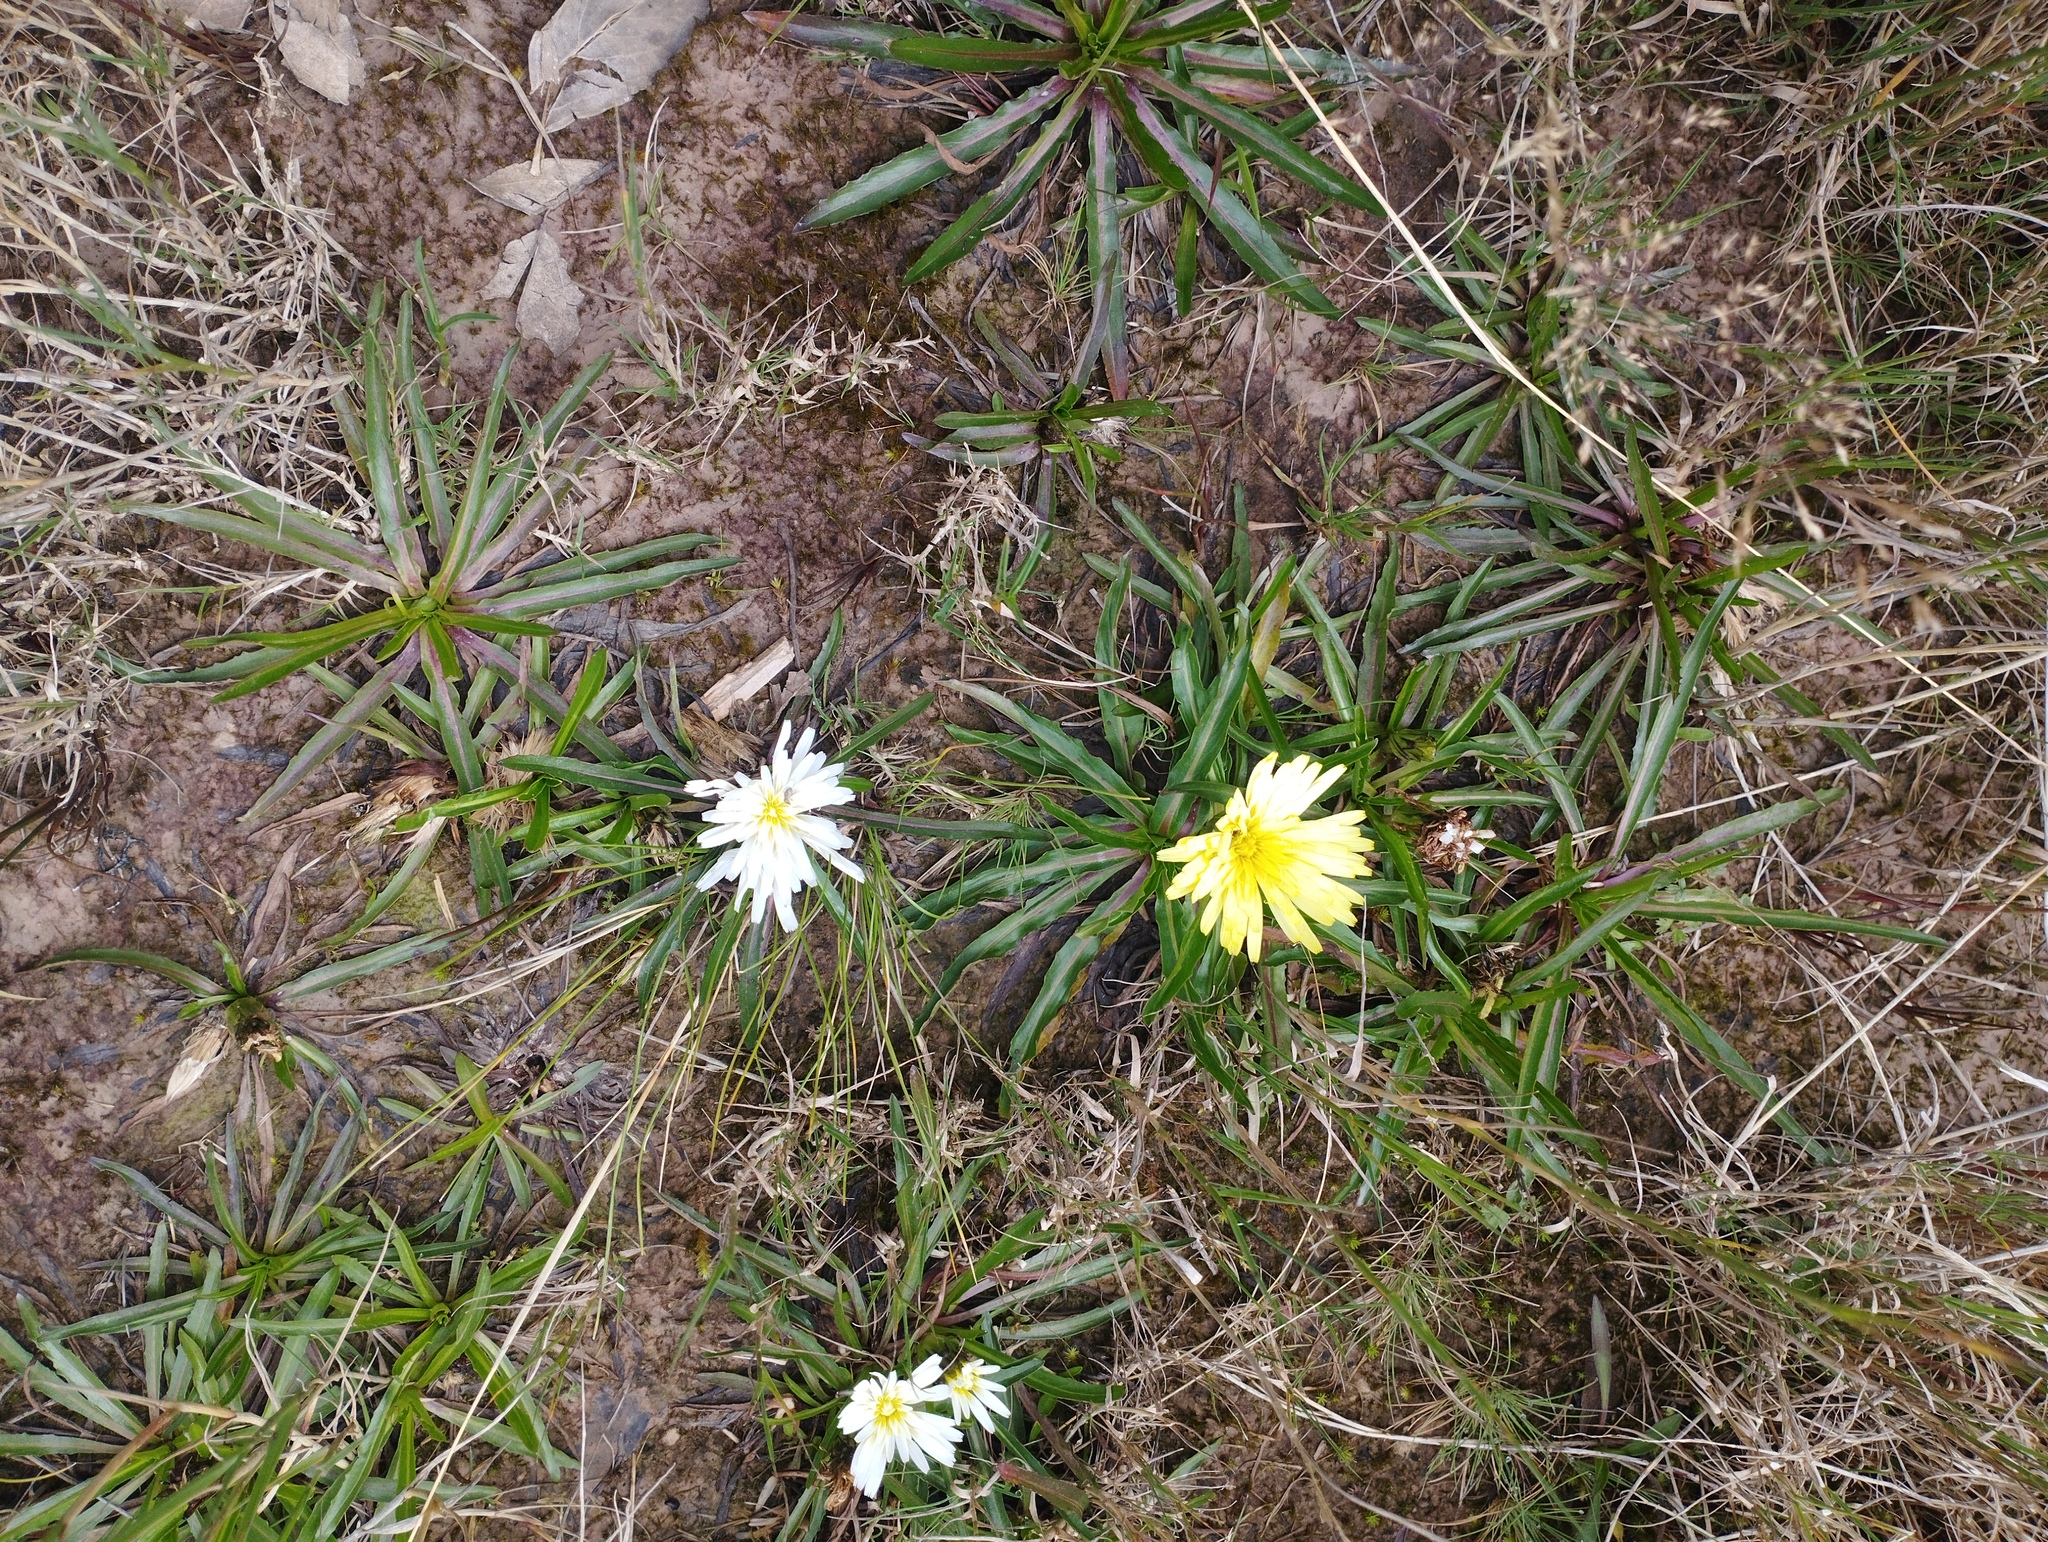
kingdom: Plantae
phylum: Tracheophyta
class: Magnoliopsida
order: Asterales
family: Asteraceae
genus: Hypochaeris
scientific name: Hypochaeris sessiliflora
